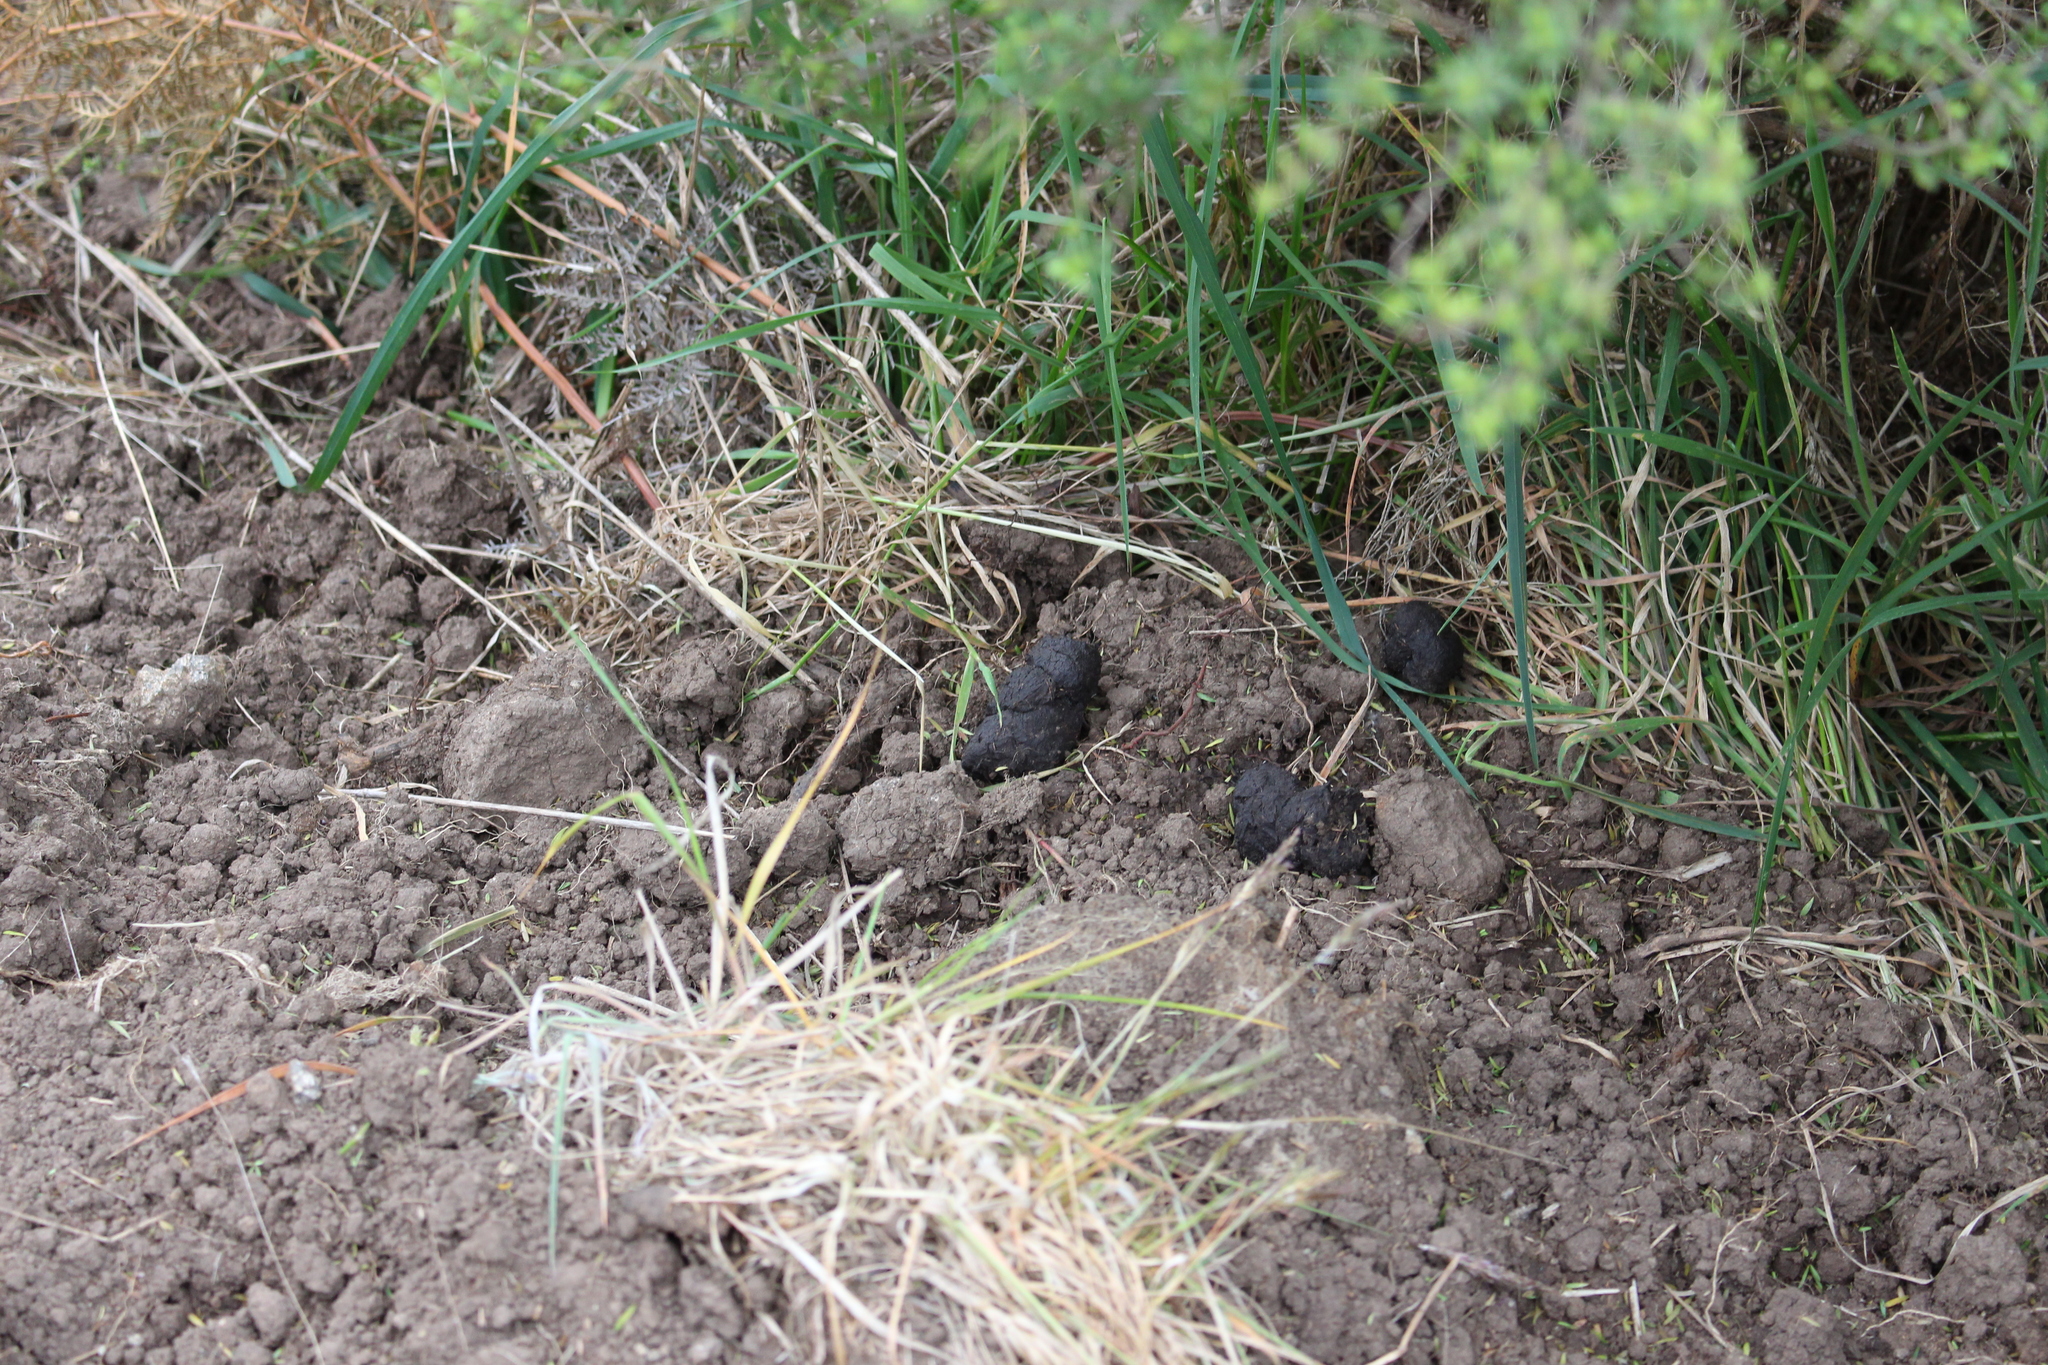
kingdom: Animalia
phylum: Chordata
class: Mammalia
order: Artiodactyla
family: Suidae
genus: Sus
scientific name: Sus scrofa
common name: Wild boar
